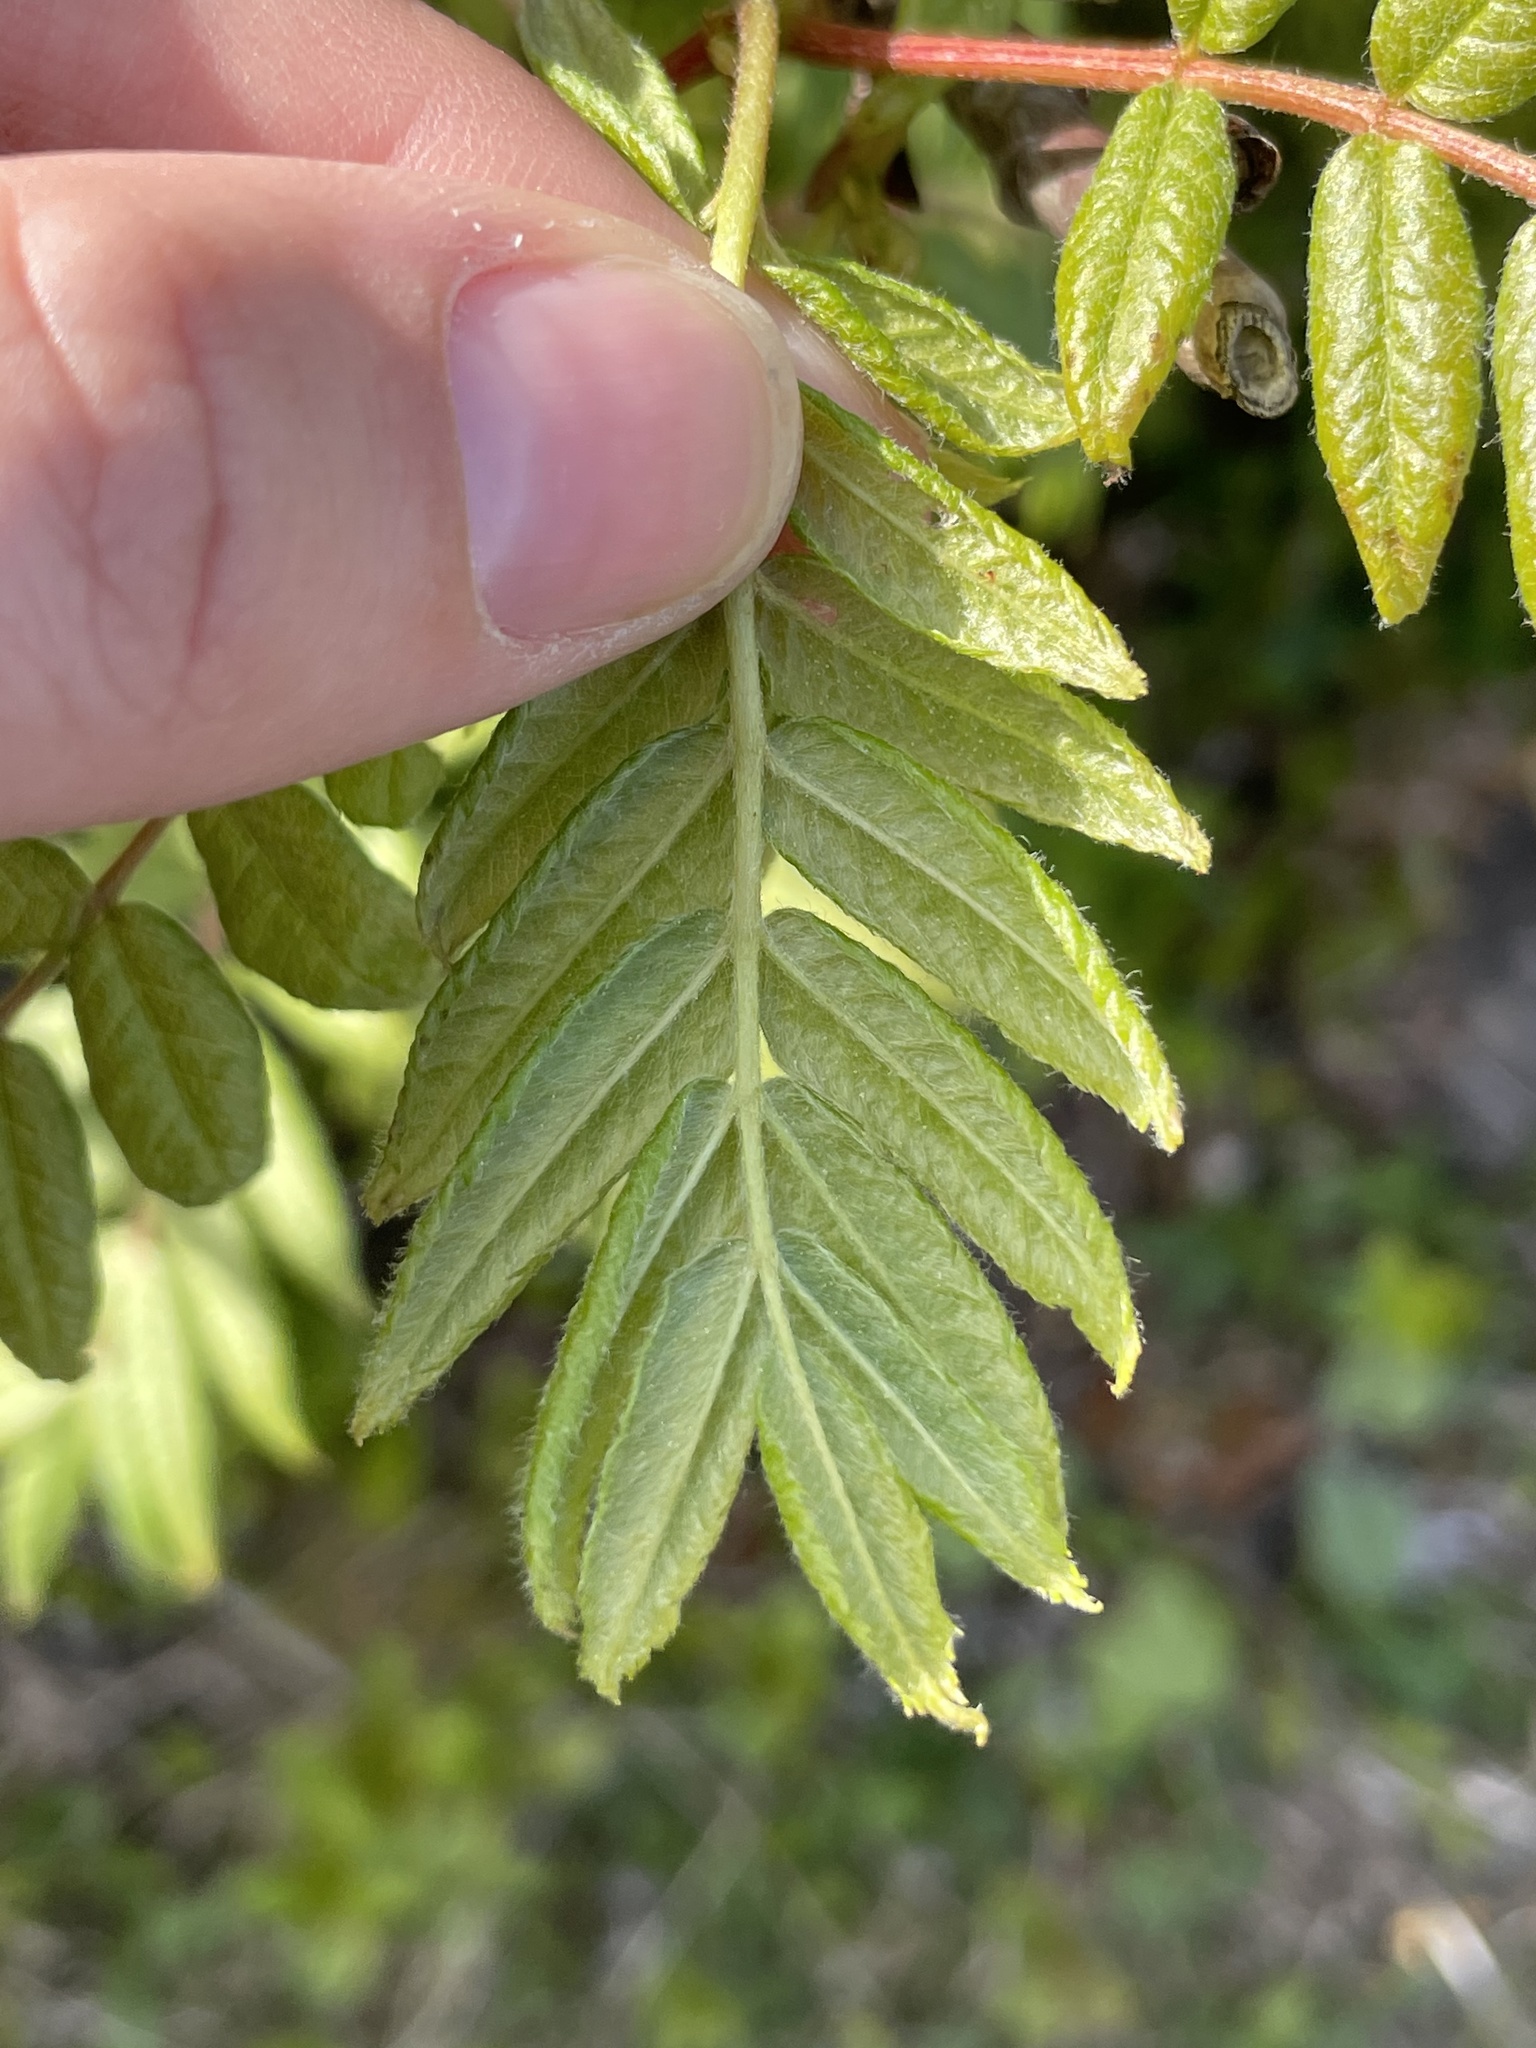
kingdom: Plantae
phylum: Tracheophyta
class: Magnoliopsida
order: Rosales
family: Rosaceae
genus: Sorbus
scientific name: Sorbus americana
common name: American mountain-ash
